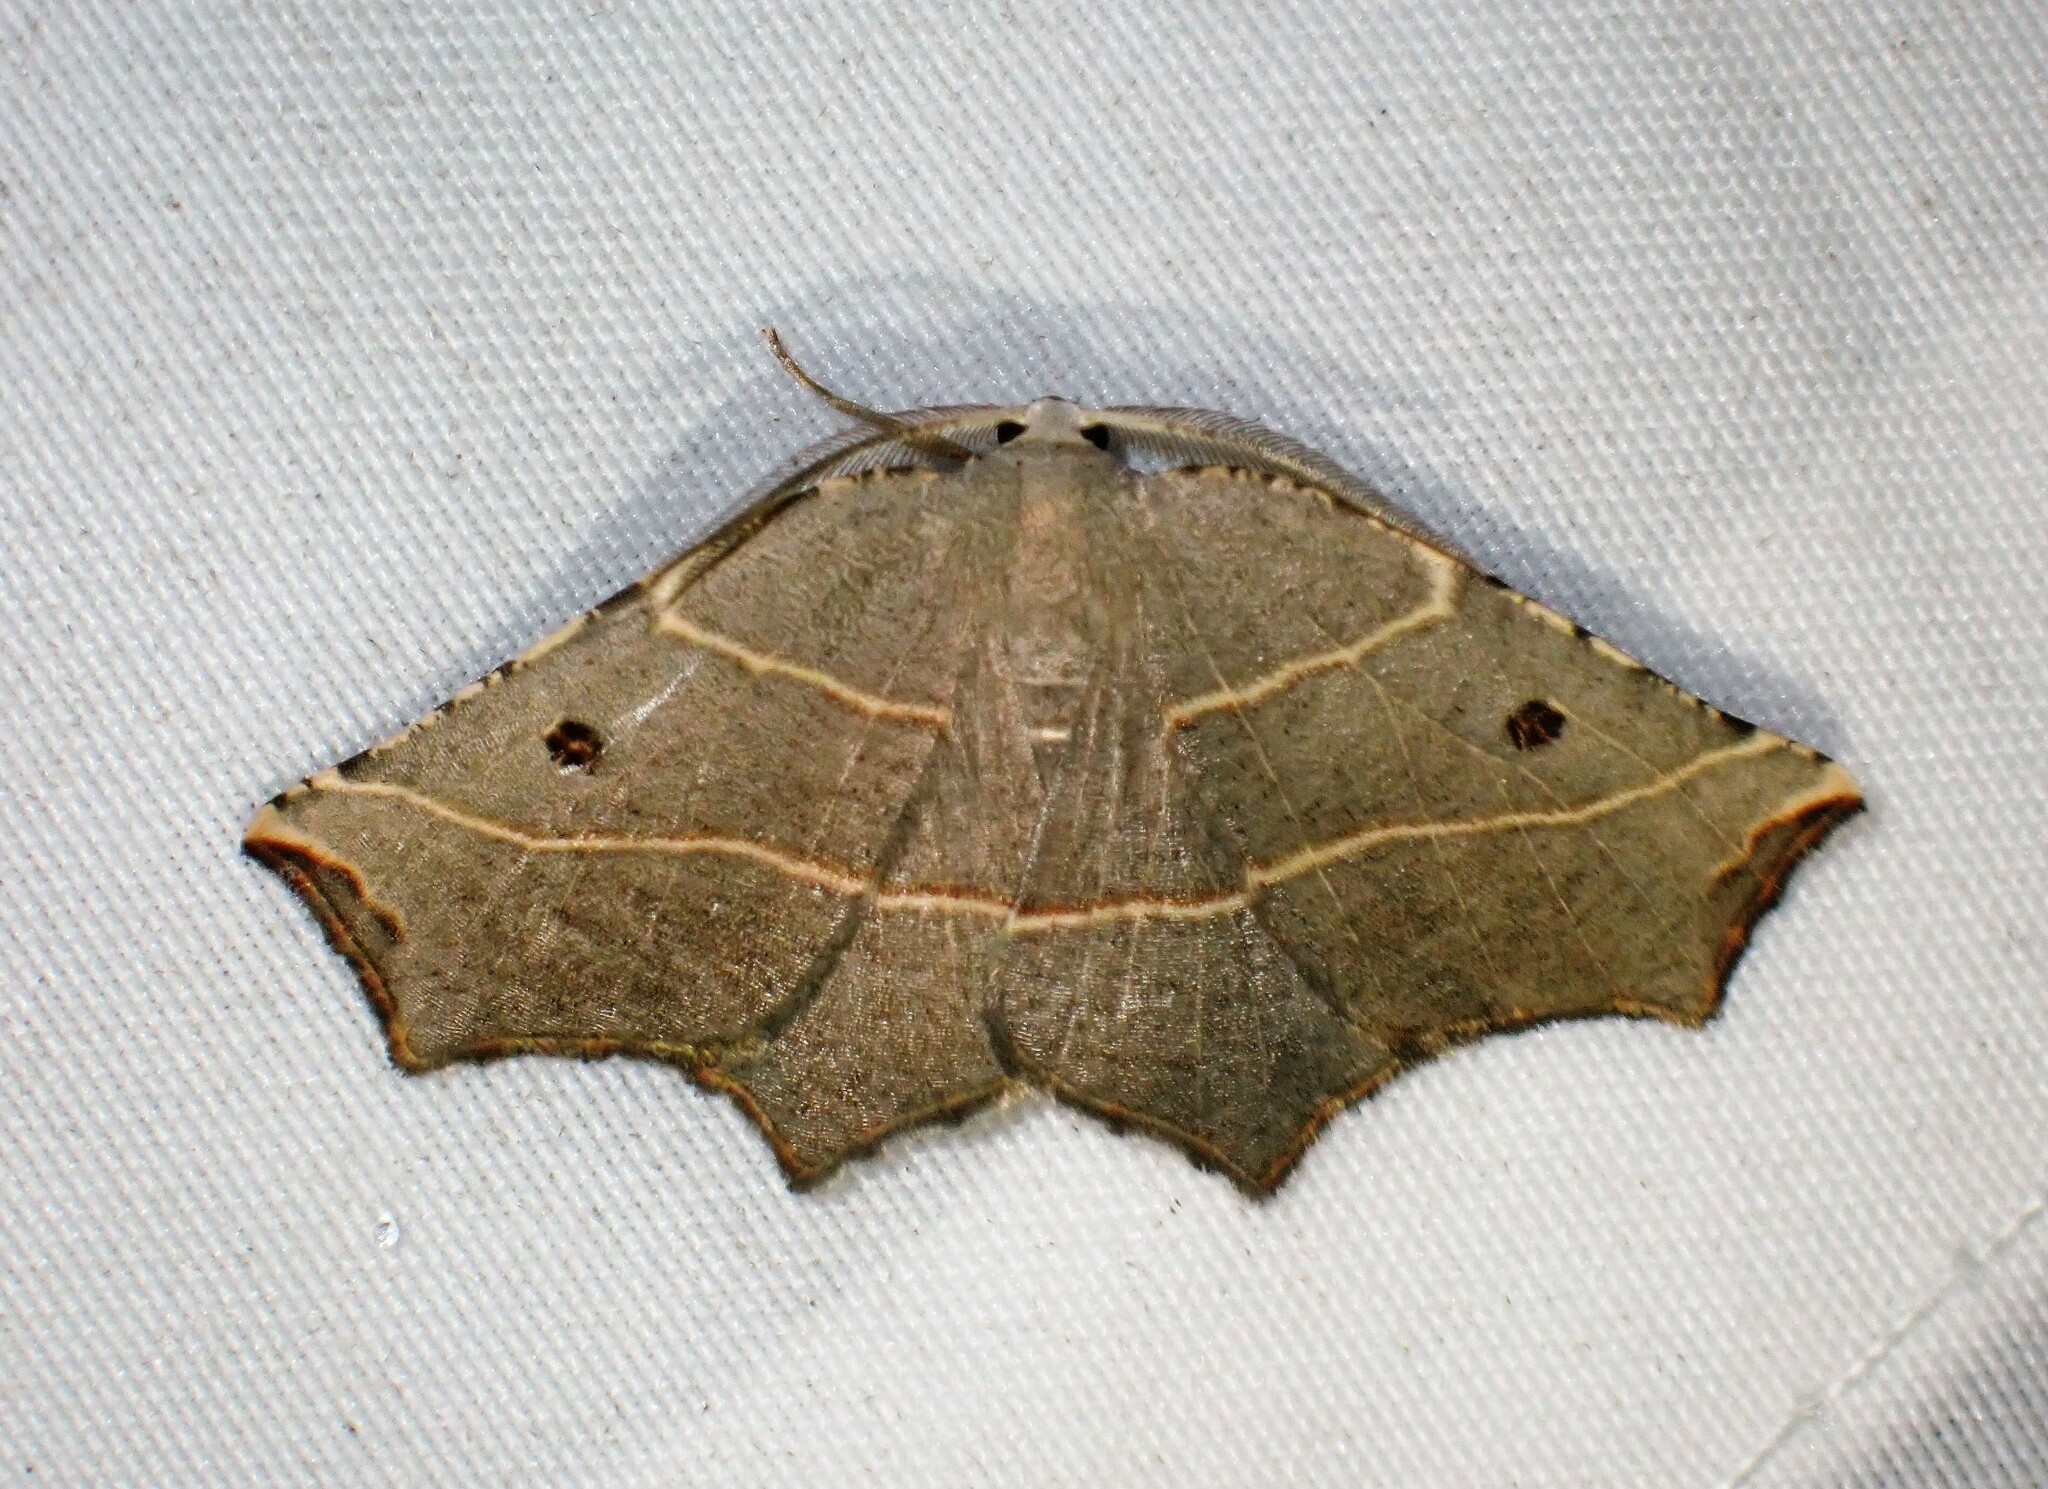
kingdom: Animalia
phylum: Arthropoda
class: Insecta
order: Lepidoptera
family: Geometridae
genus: Metanema
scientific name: Metanema inatomaria
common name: Pale metanema
